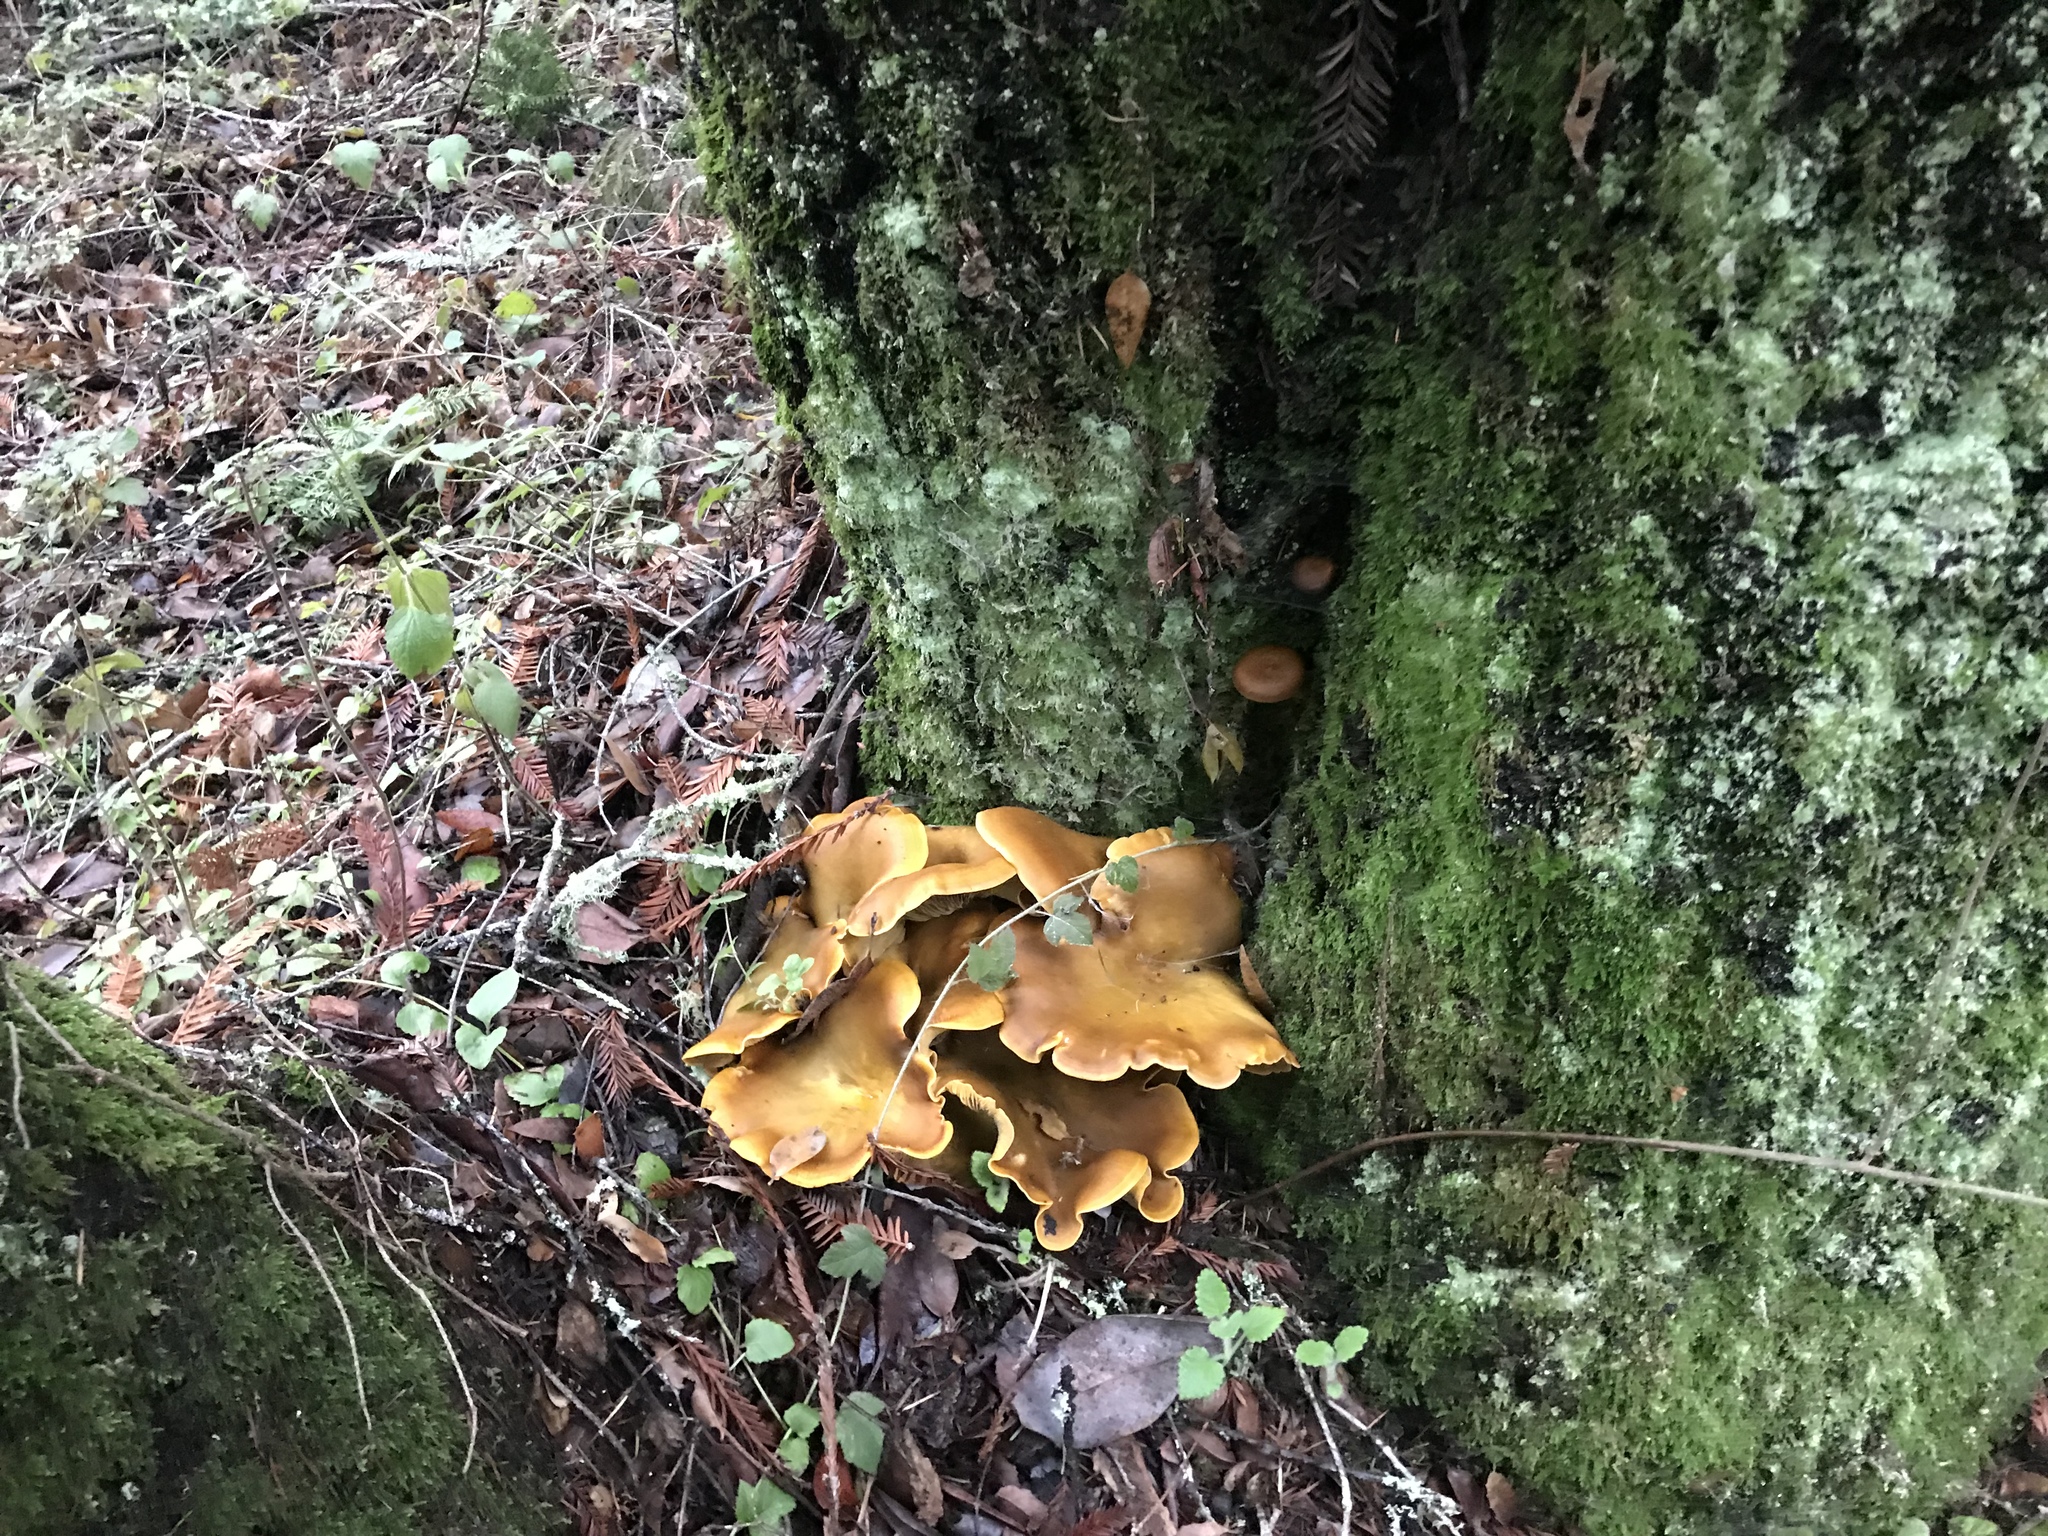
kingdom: Fungi
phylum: Basidiomycota
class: Agaricomycetes
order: Agaricales
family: Omphalotaceae
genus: Omphalotus
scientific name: Omphalotus olivascens
